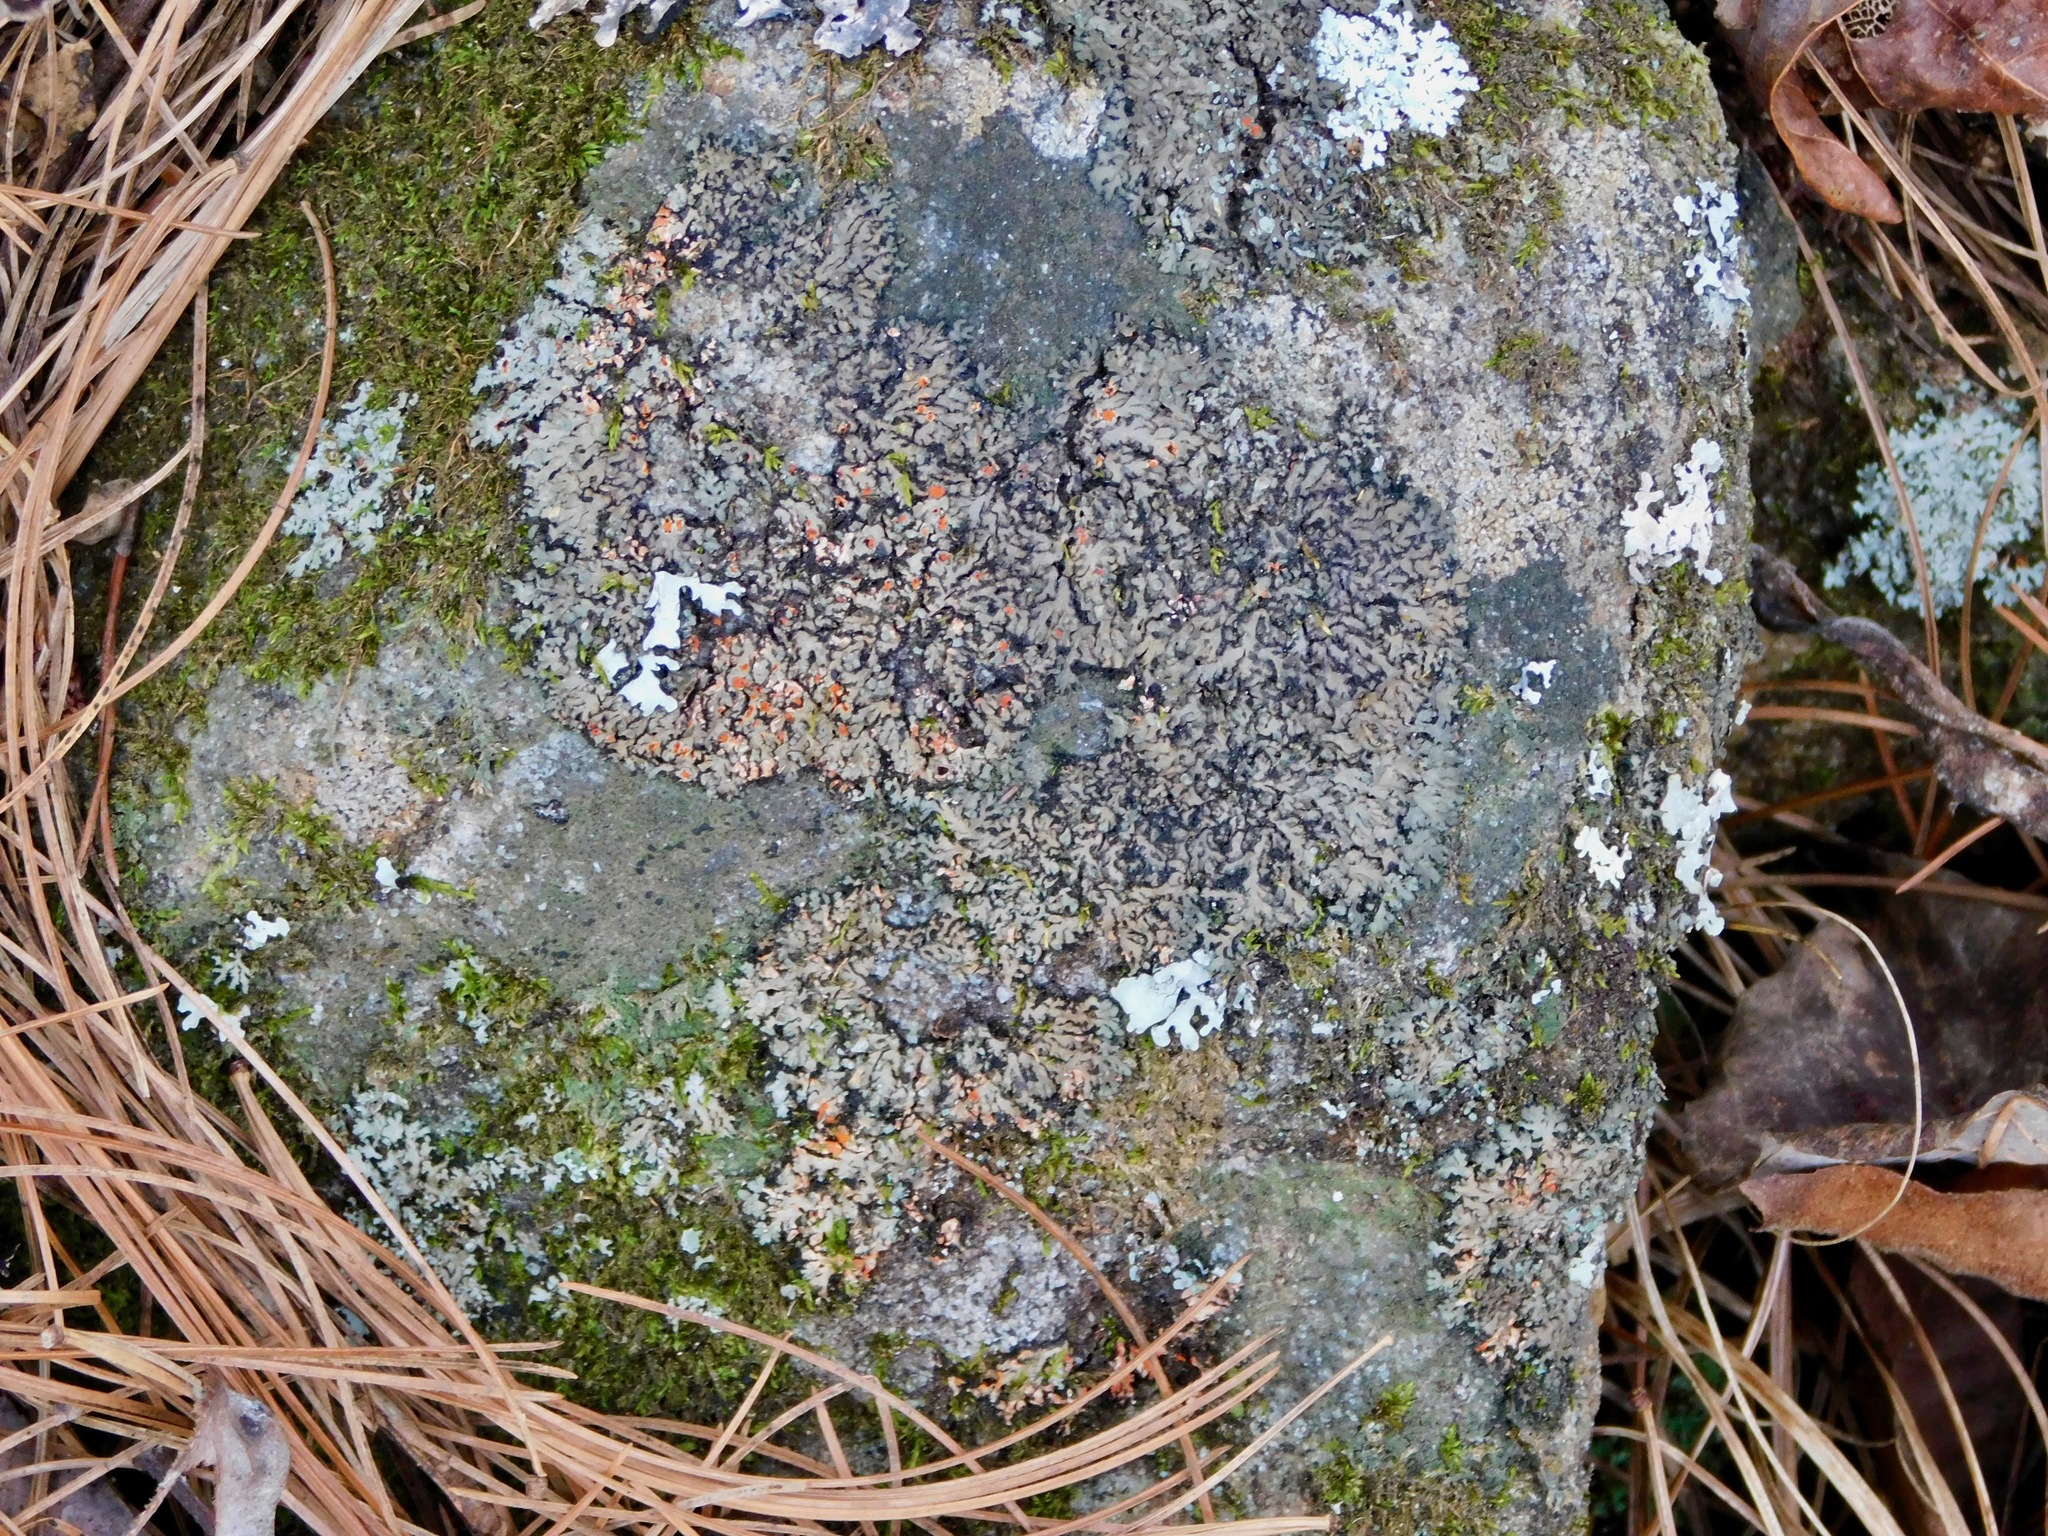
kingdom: Fungi
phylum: Ascomycota
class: Lecanoromycetes
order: Caliciales
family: Physciaceae
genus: Phaeophyscia
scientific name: Phaeophyscia rubropulchra
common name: Orange-cored shadow lichen
